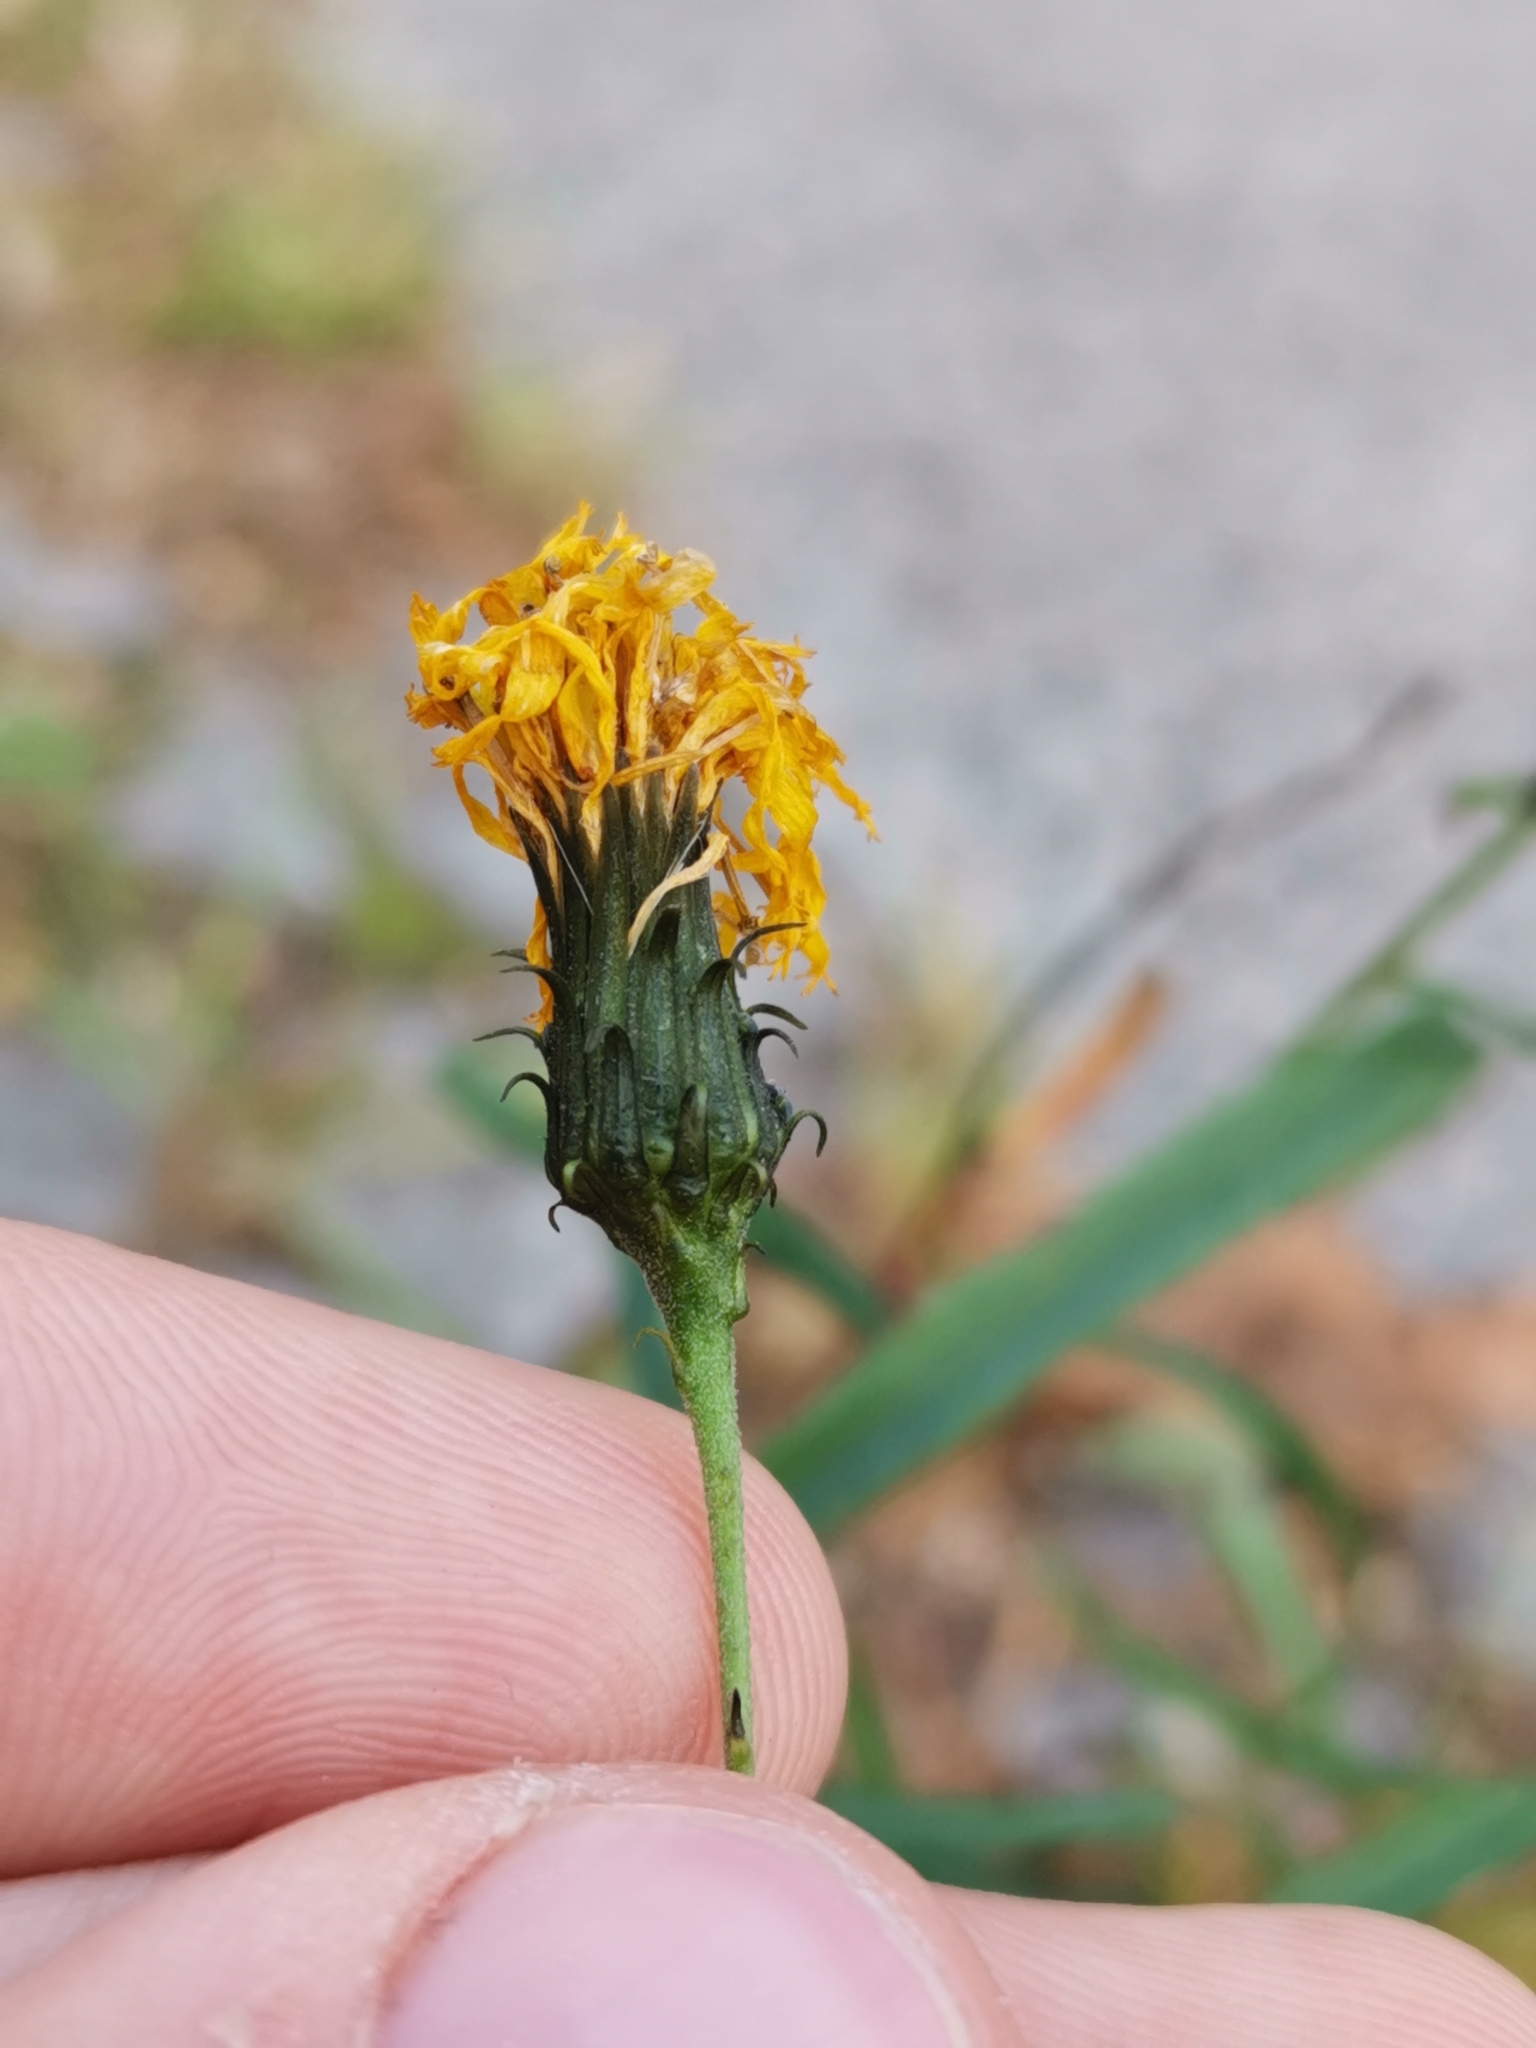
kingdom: Plantae
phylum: Tracheophyta
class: Magnoliopsida
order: Asterales
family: Asteraceae
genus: Hieracium
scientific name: Hieracium umbellatum
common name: Northern hawkweed
